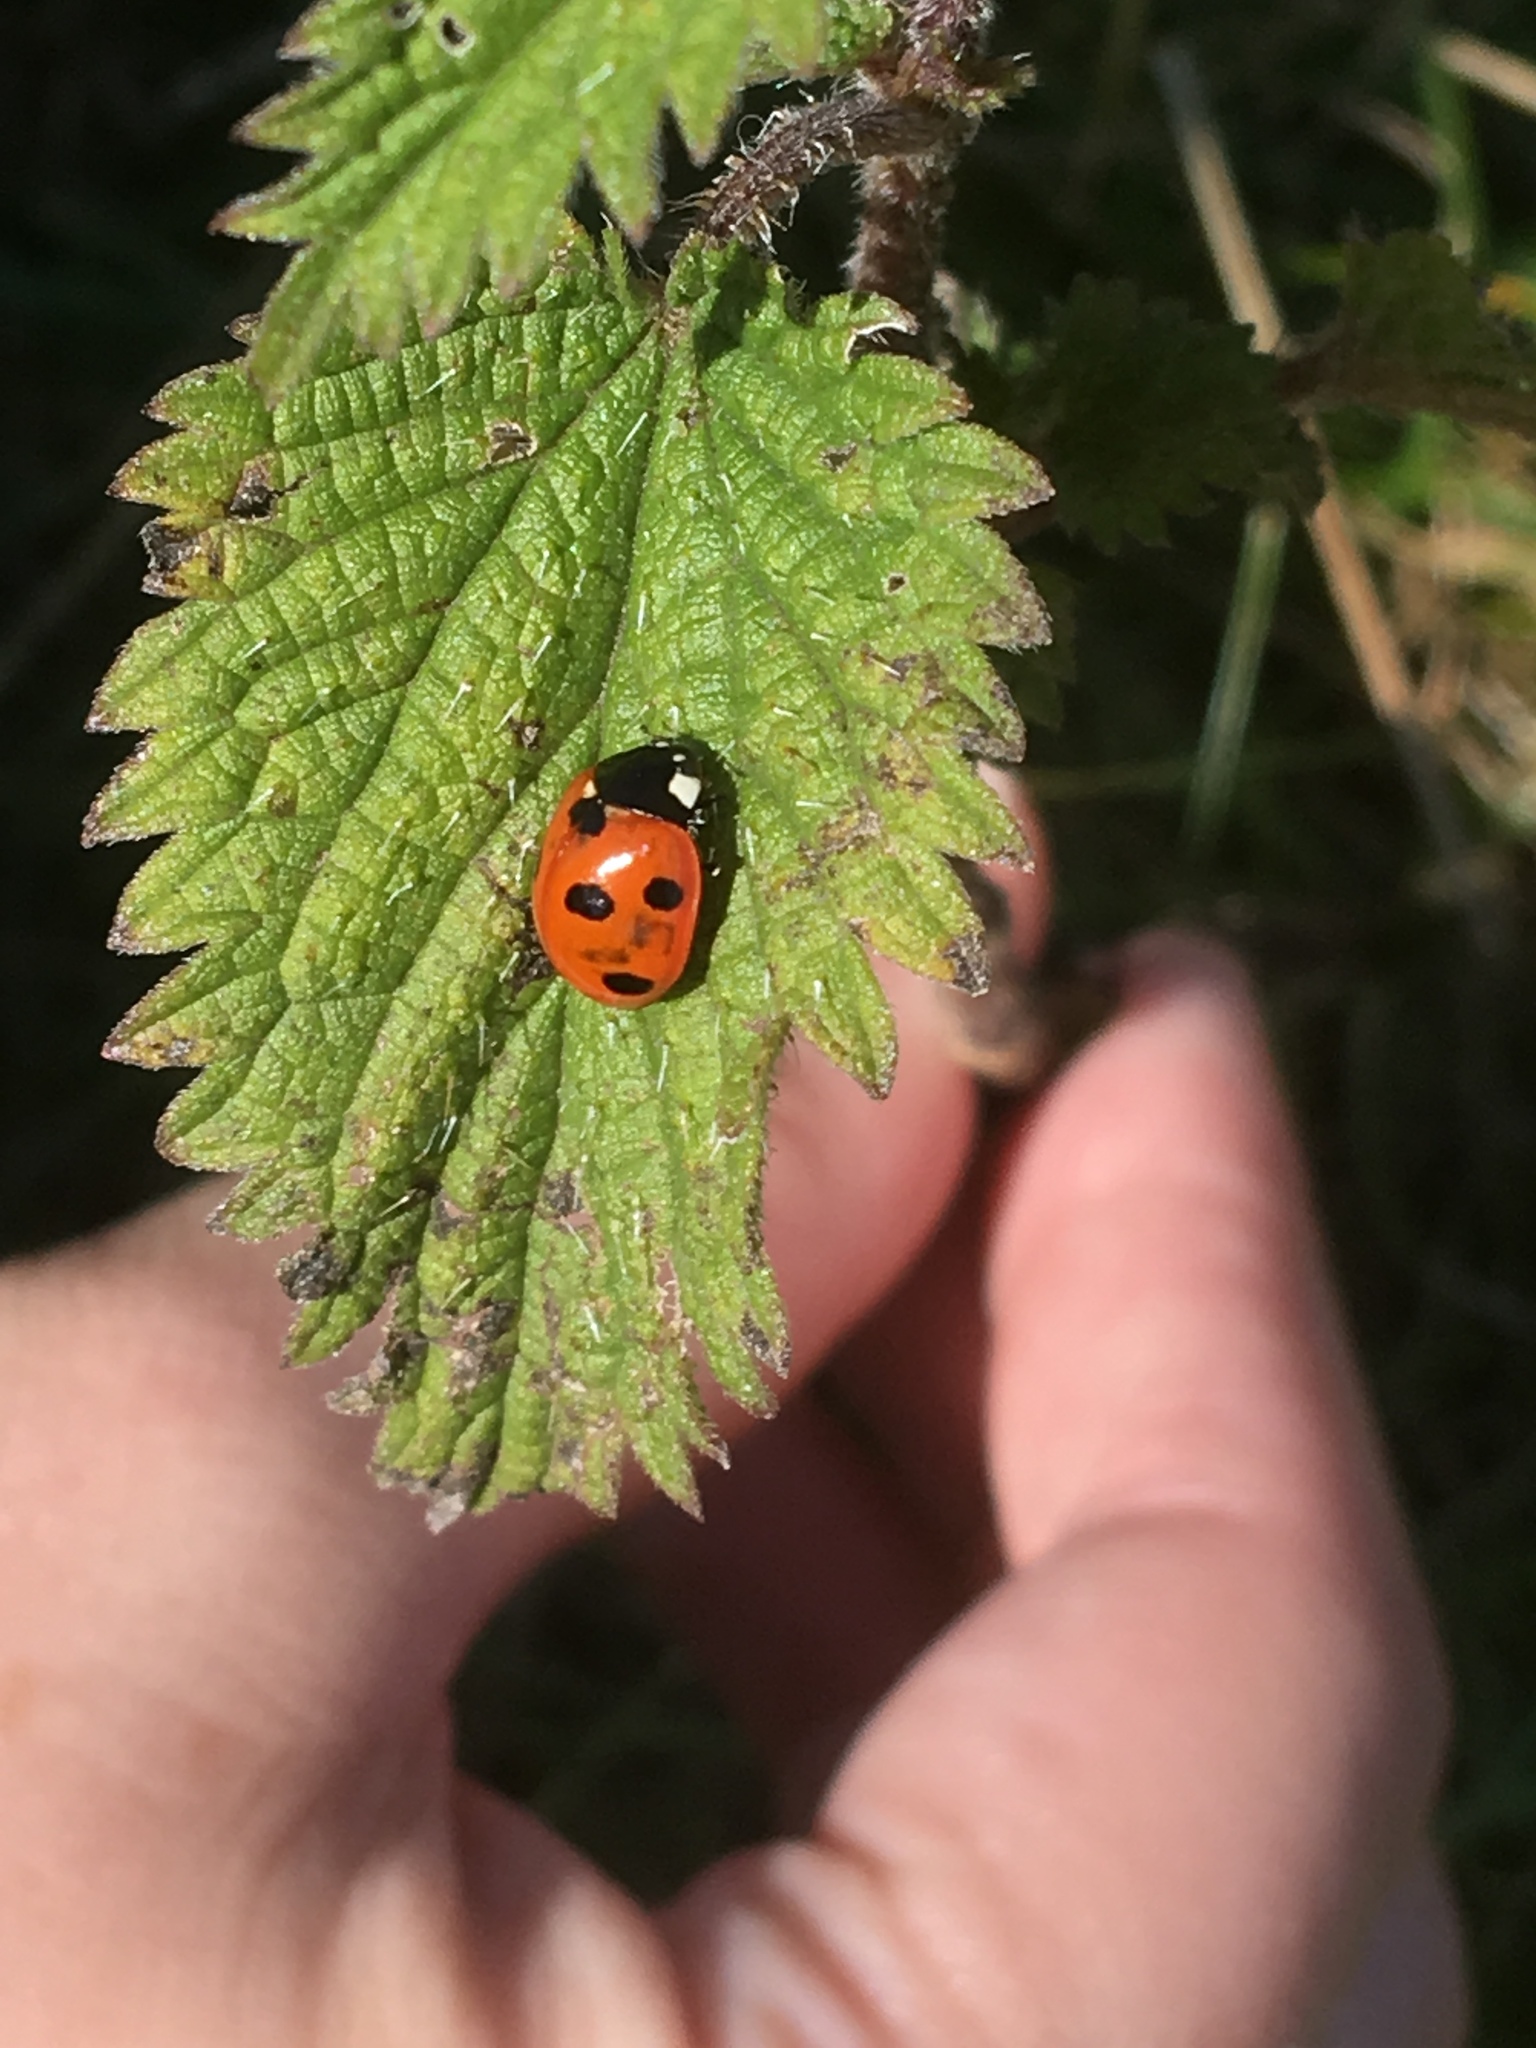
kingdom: Animalia
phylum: Arthropoda
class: Insecta
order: Coleoptera
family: Coccinellidae
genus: Coccinella
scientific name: Coccinella septempunctata
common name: Sevenspotted lady beetle
